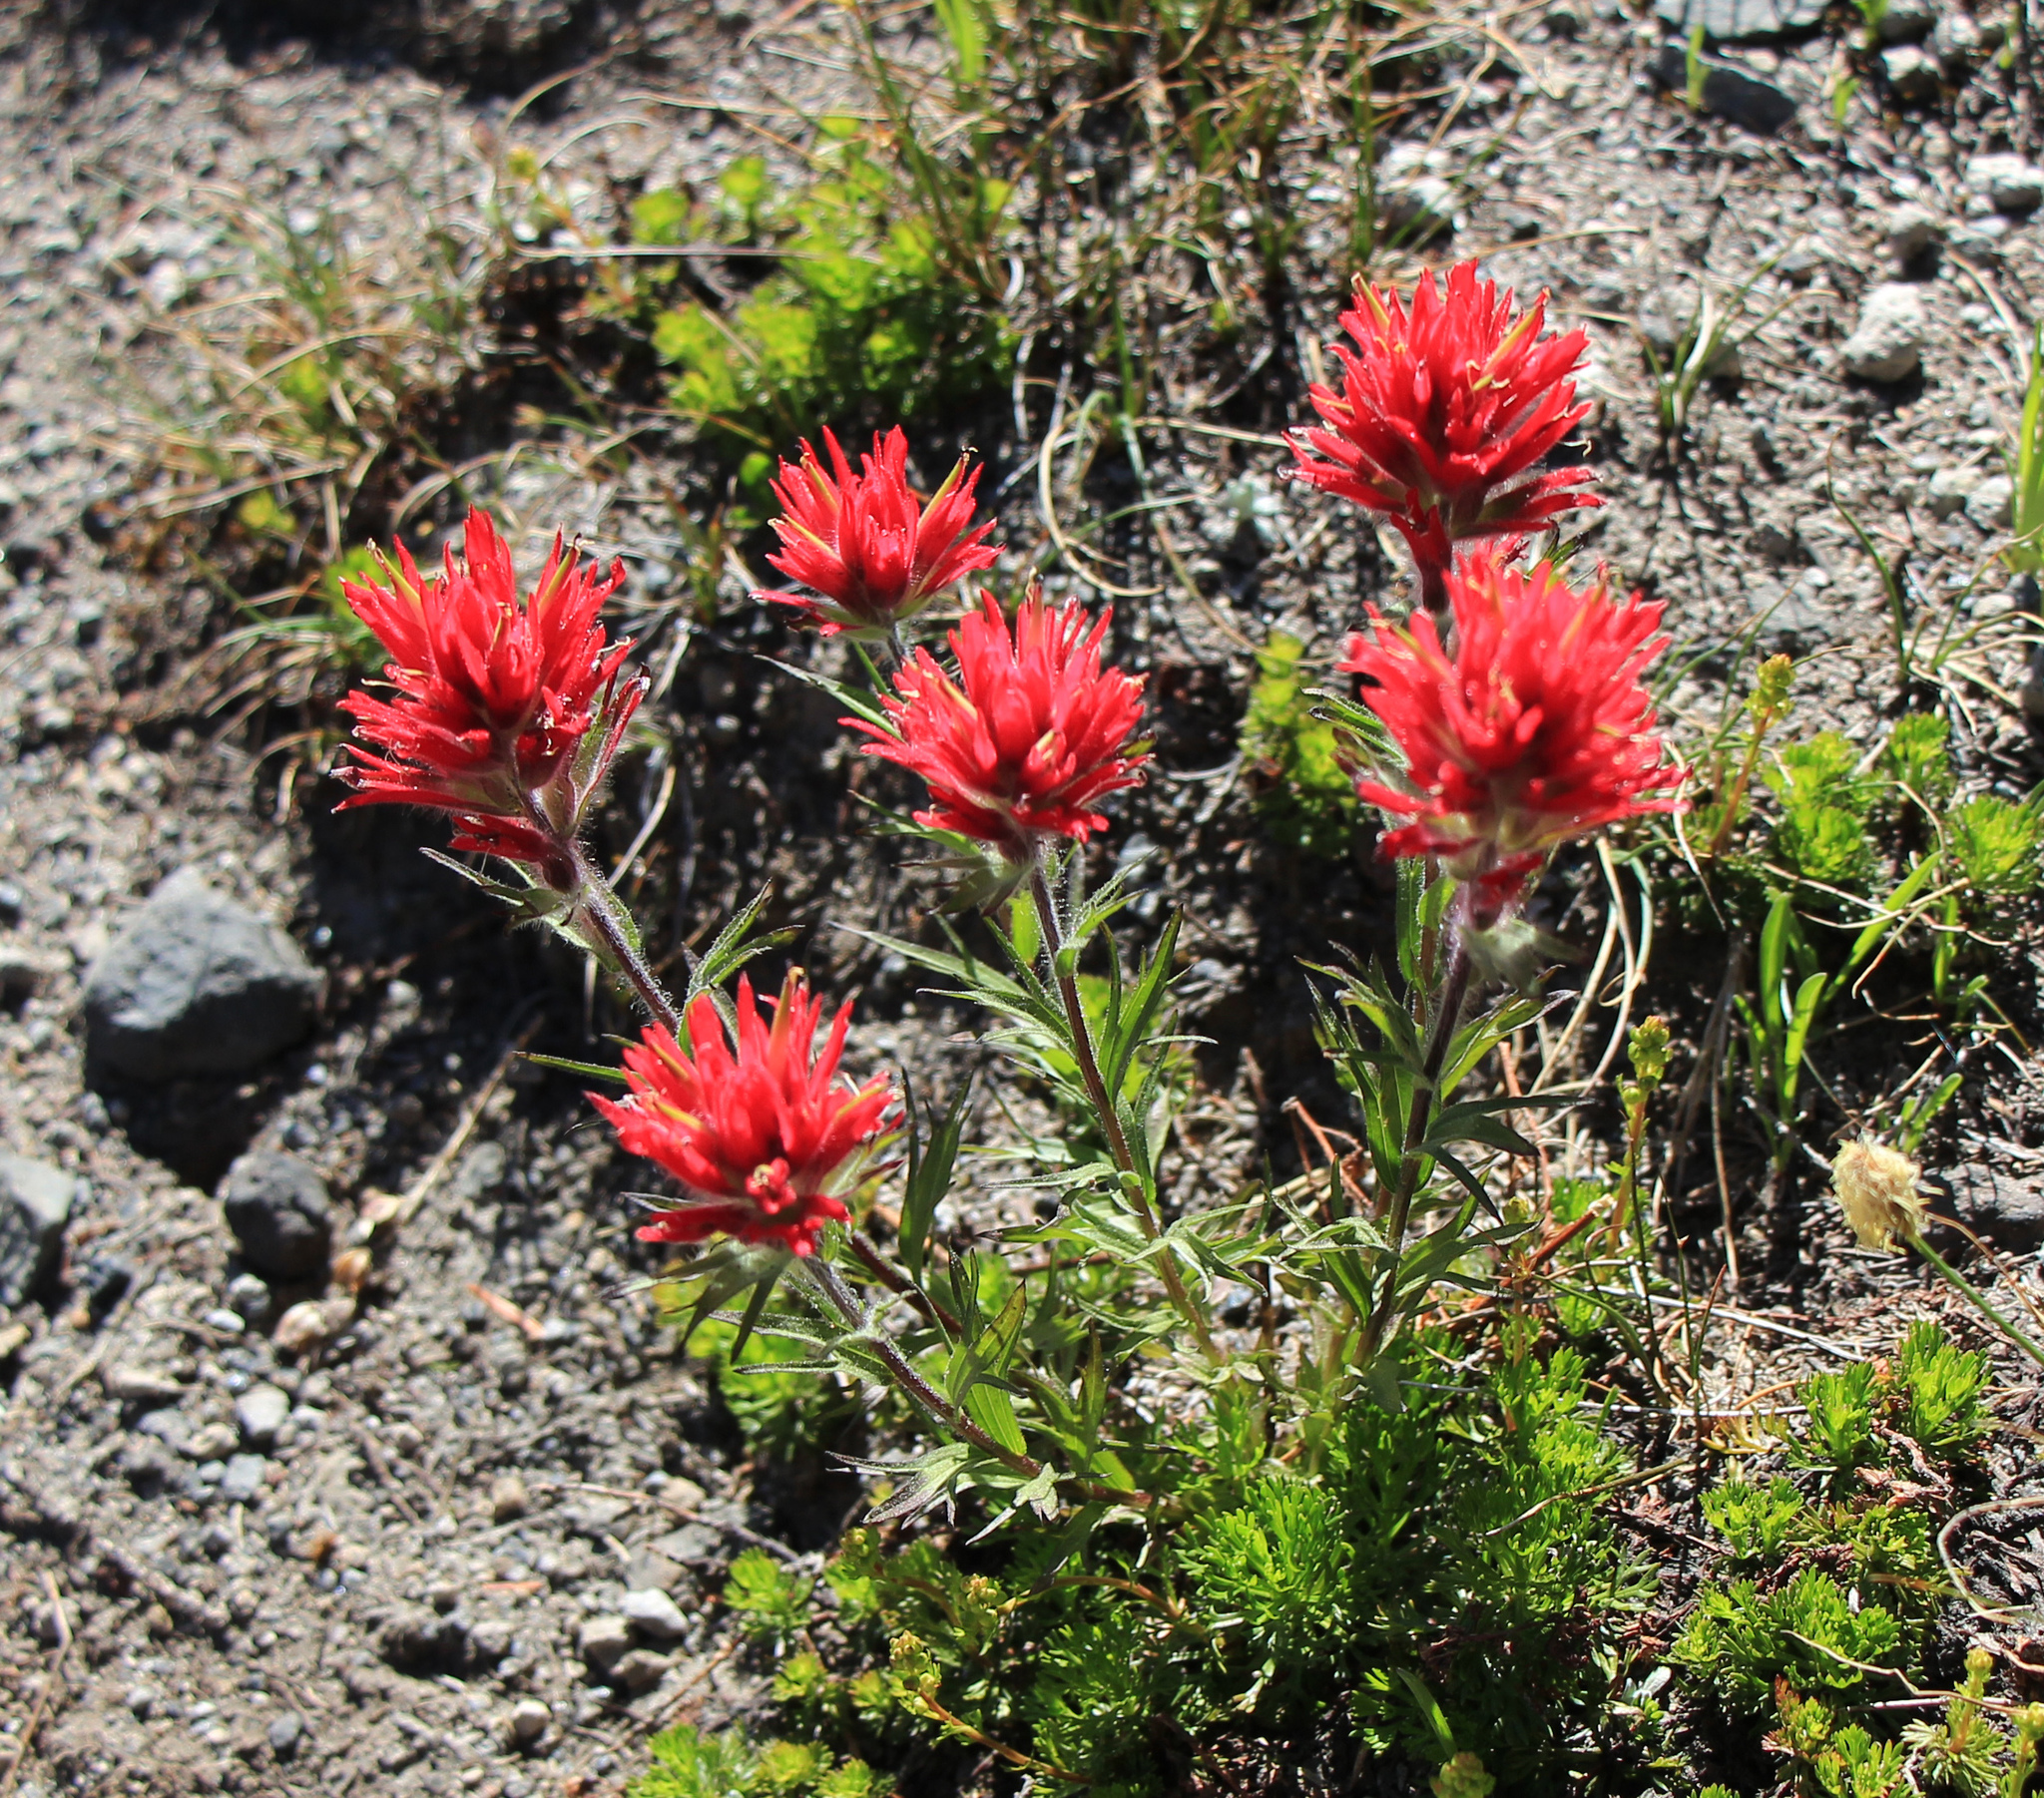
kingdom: Plantae
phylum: Tracheophyta
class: Magnoliopsida
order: Lamiales
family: Orobanchaceae
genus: Castilleja
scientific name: Castilleja parviflora
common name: Mountain paintbrush
